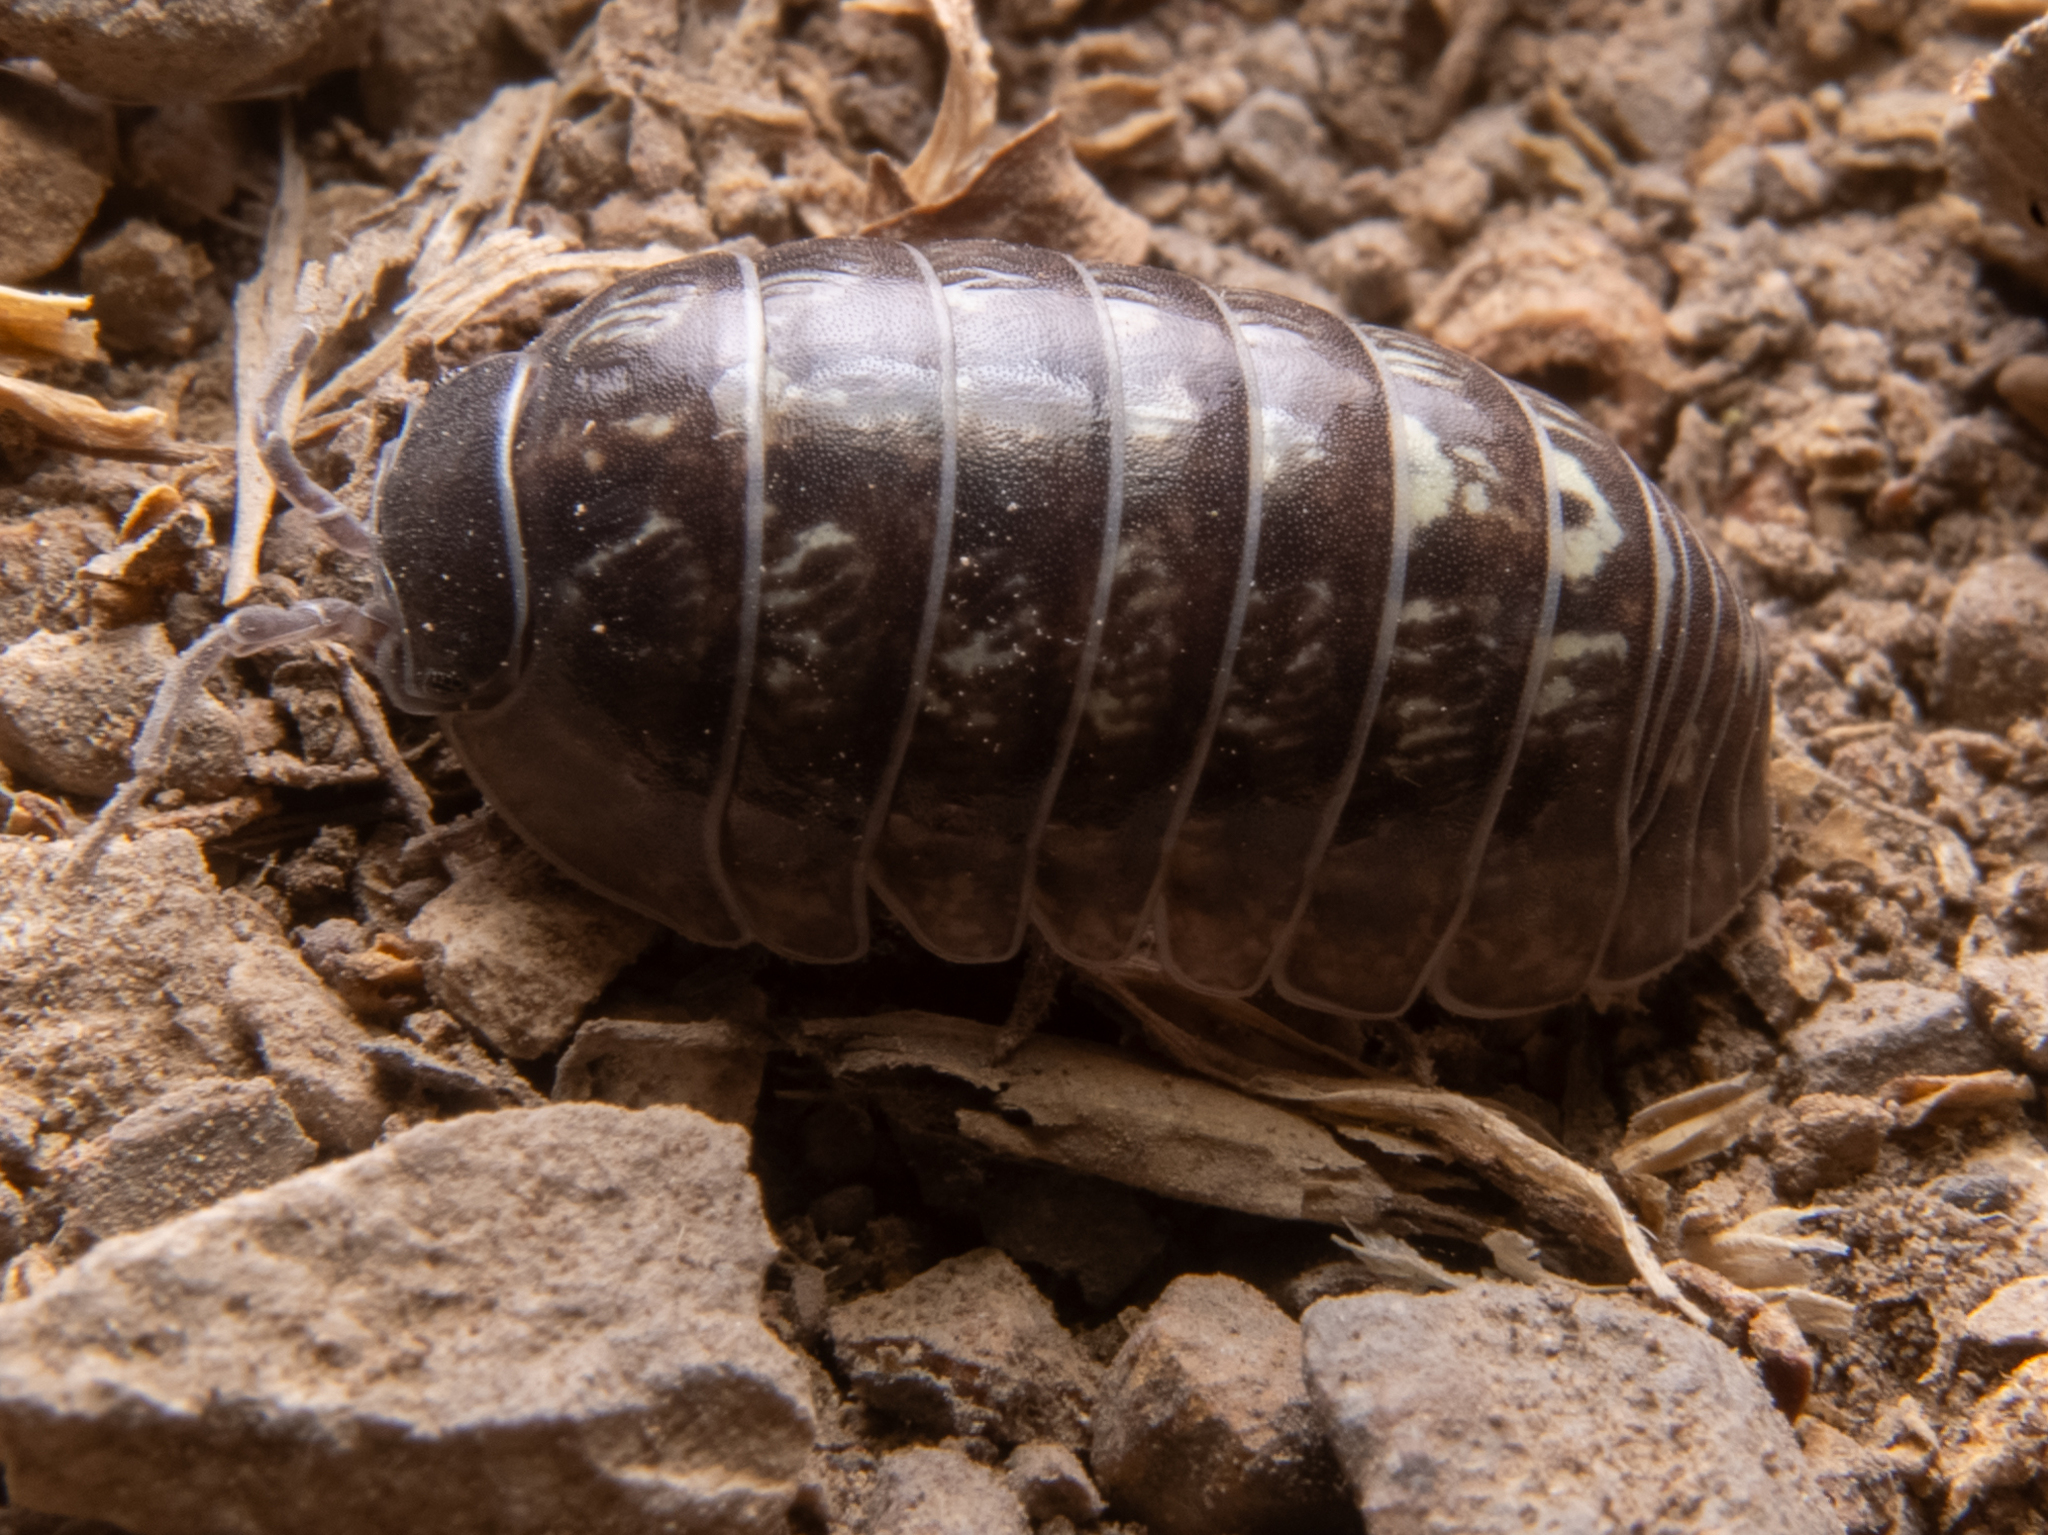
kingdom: Animalia
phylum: Arthropoda
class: Malacostraca
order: Isopoda
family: Armadillidiidae
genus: Armadillidium
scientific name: Armadillidium vulgare
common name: Common pill woodlouse
